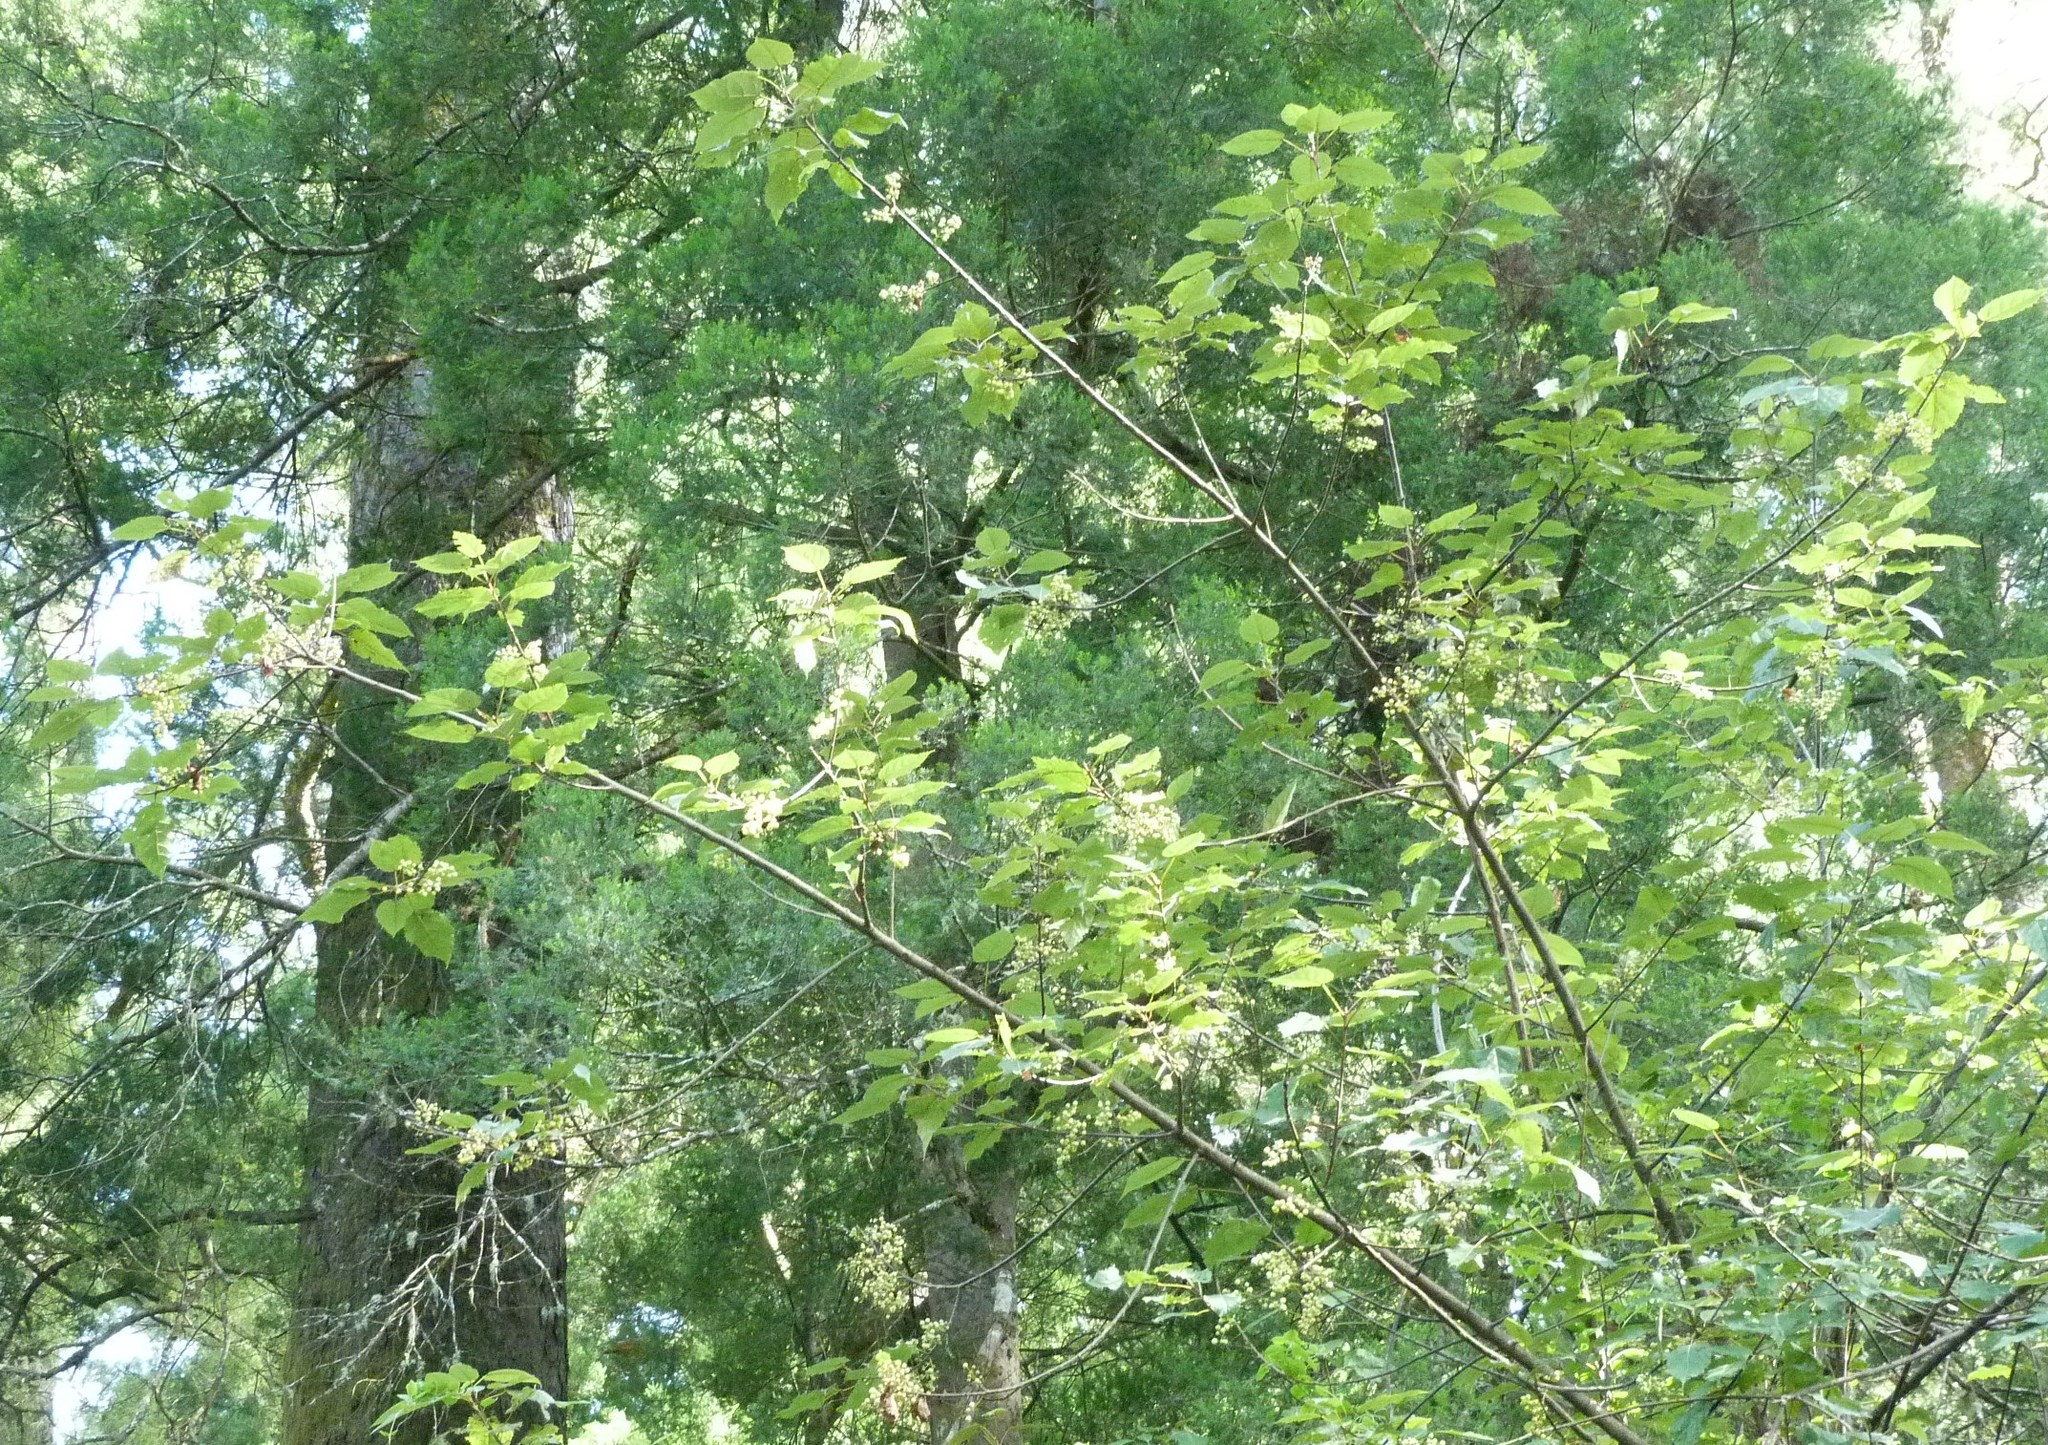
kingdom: Plantae
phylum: Tracheophyta
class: Magnoliopsida
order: Oxalidales
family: Elaeocarpaceae
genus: Aristotelia
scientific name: Aristotelia serrata
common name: New zealand wineberry
